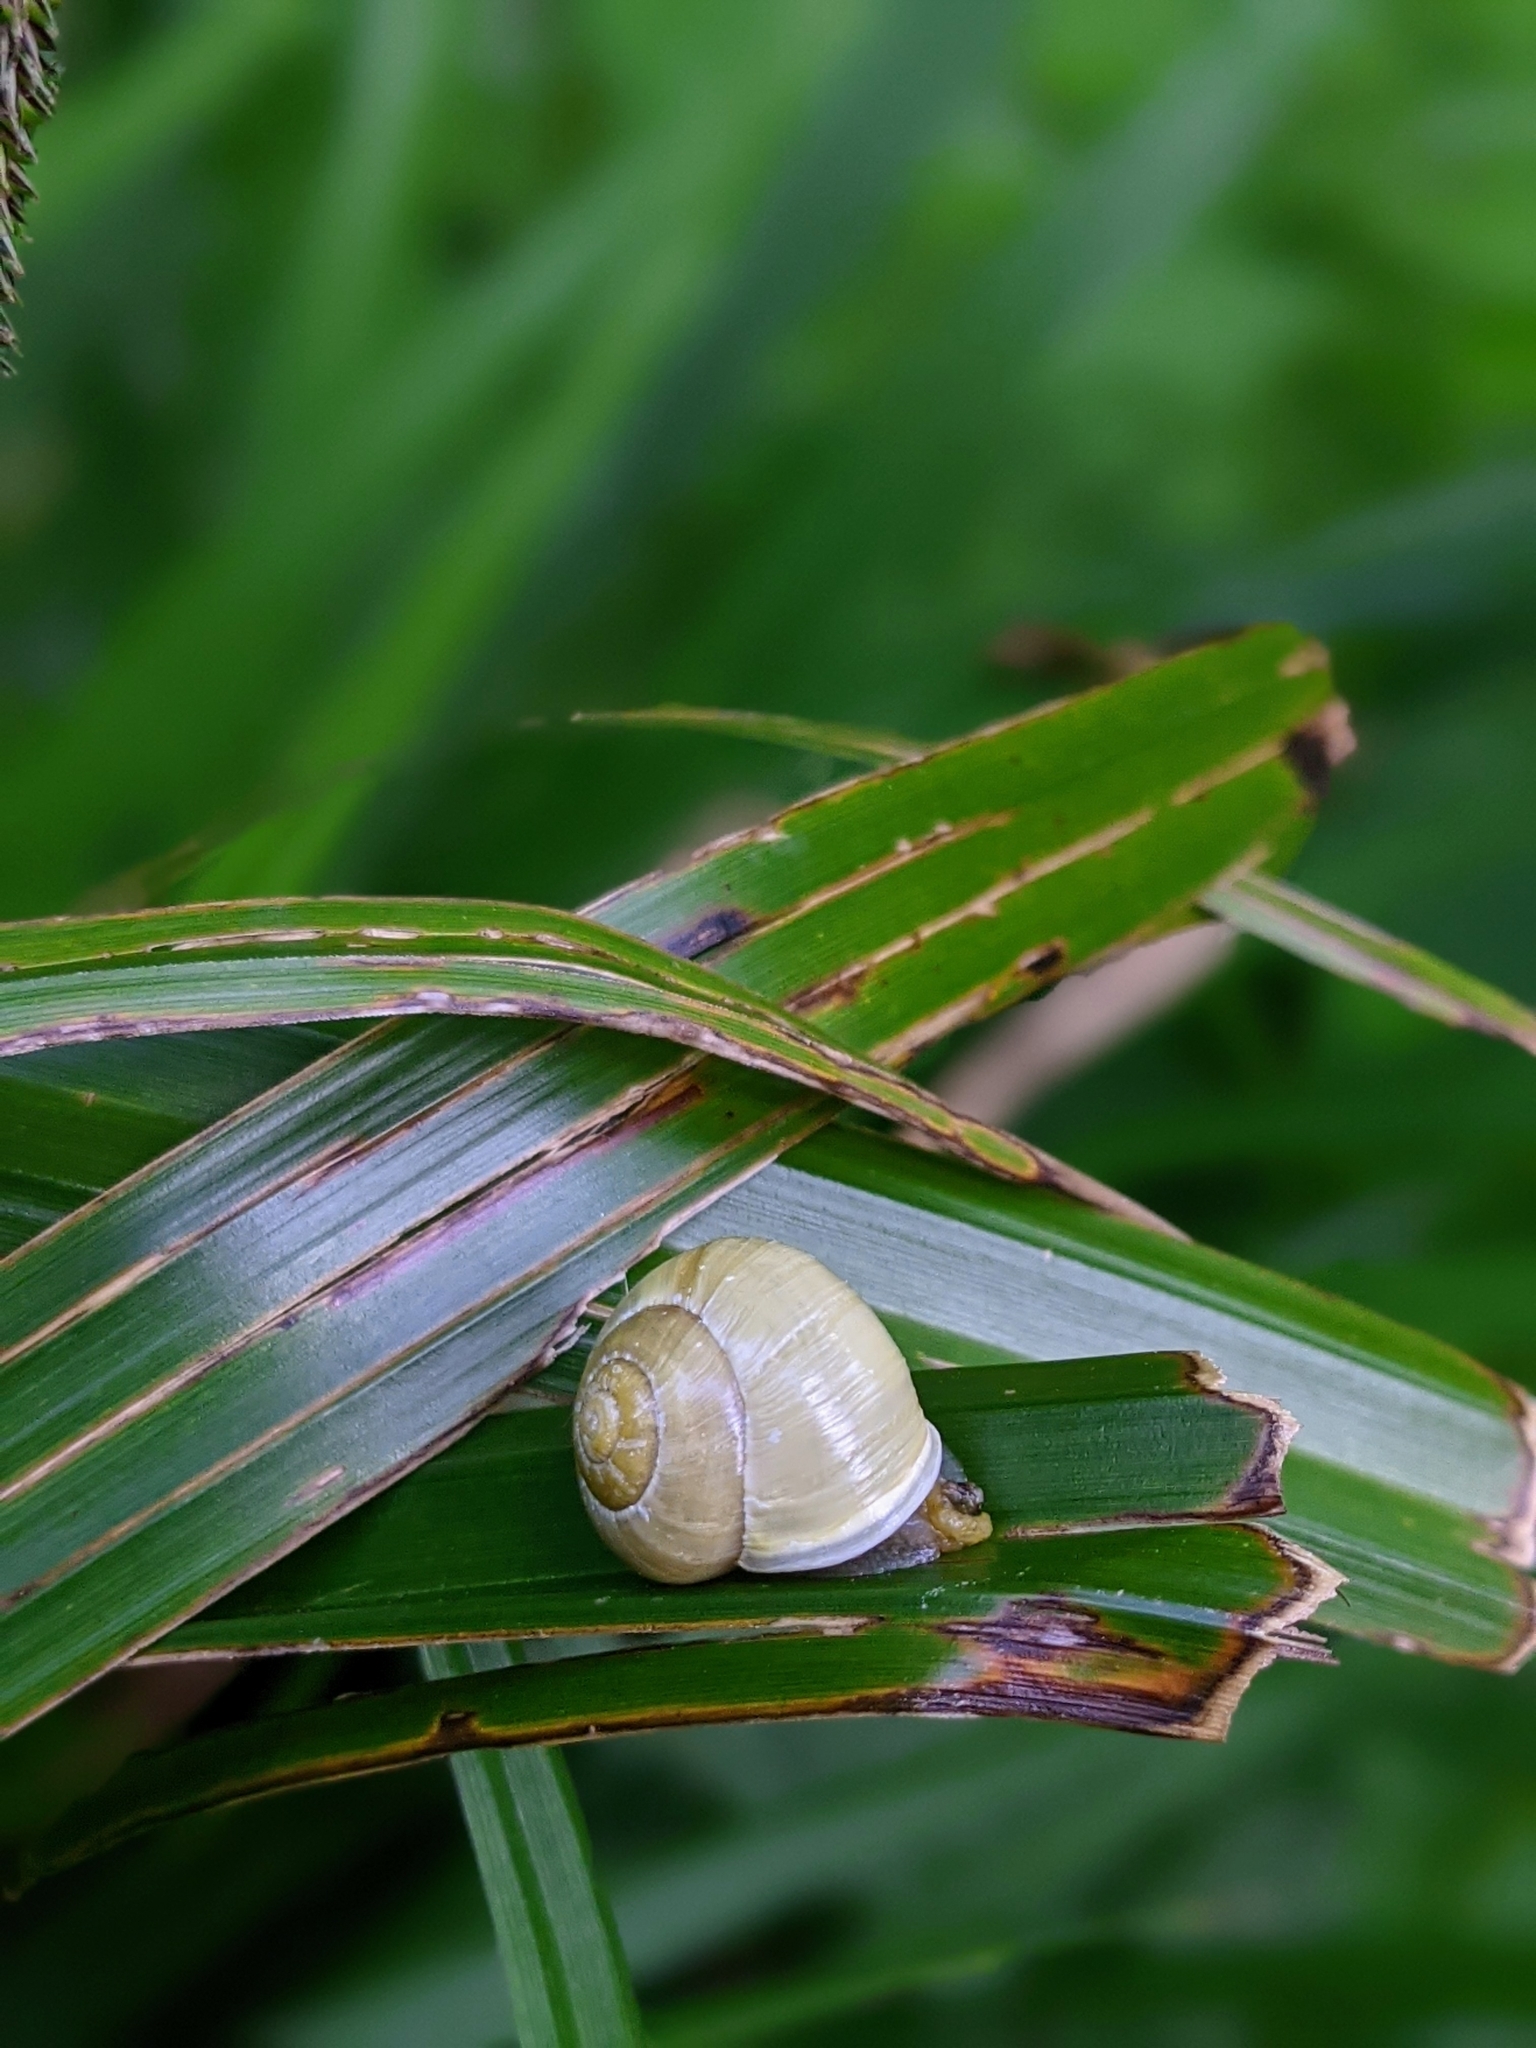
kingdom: Animalia
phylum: Mollusca
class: Gastropoda
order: Stylommatophora
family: Helicidae
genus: Cepaea
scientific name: Cepaea hortensis
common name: White-lip gardensnail
